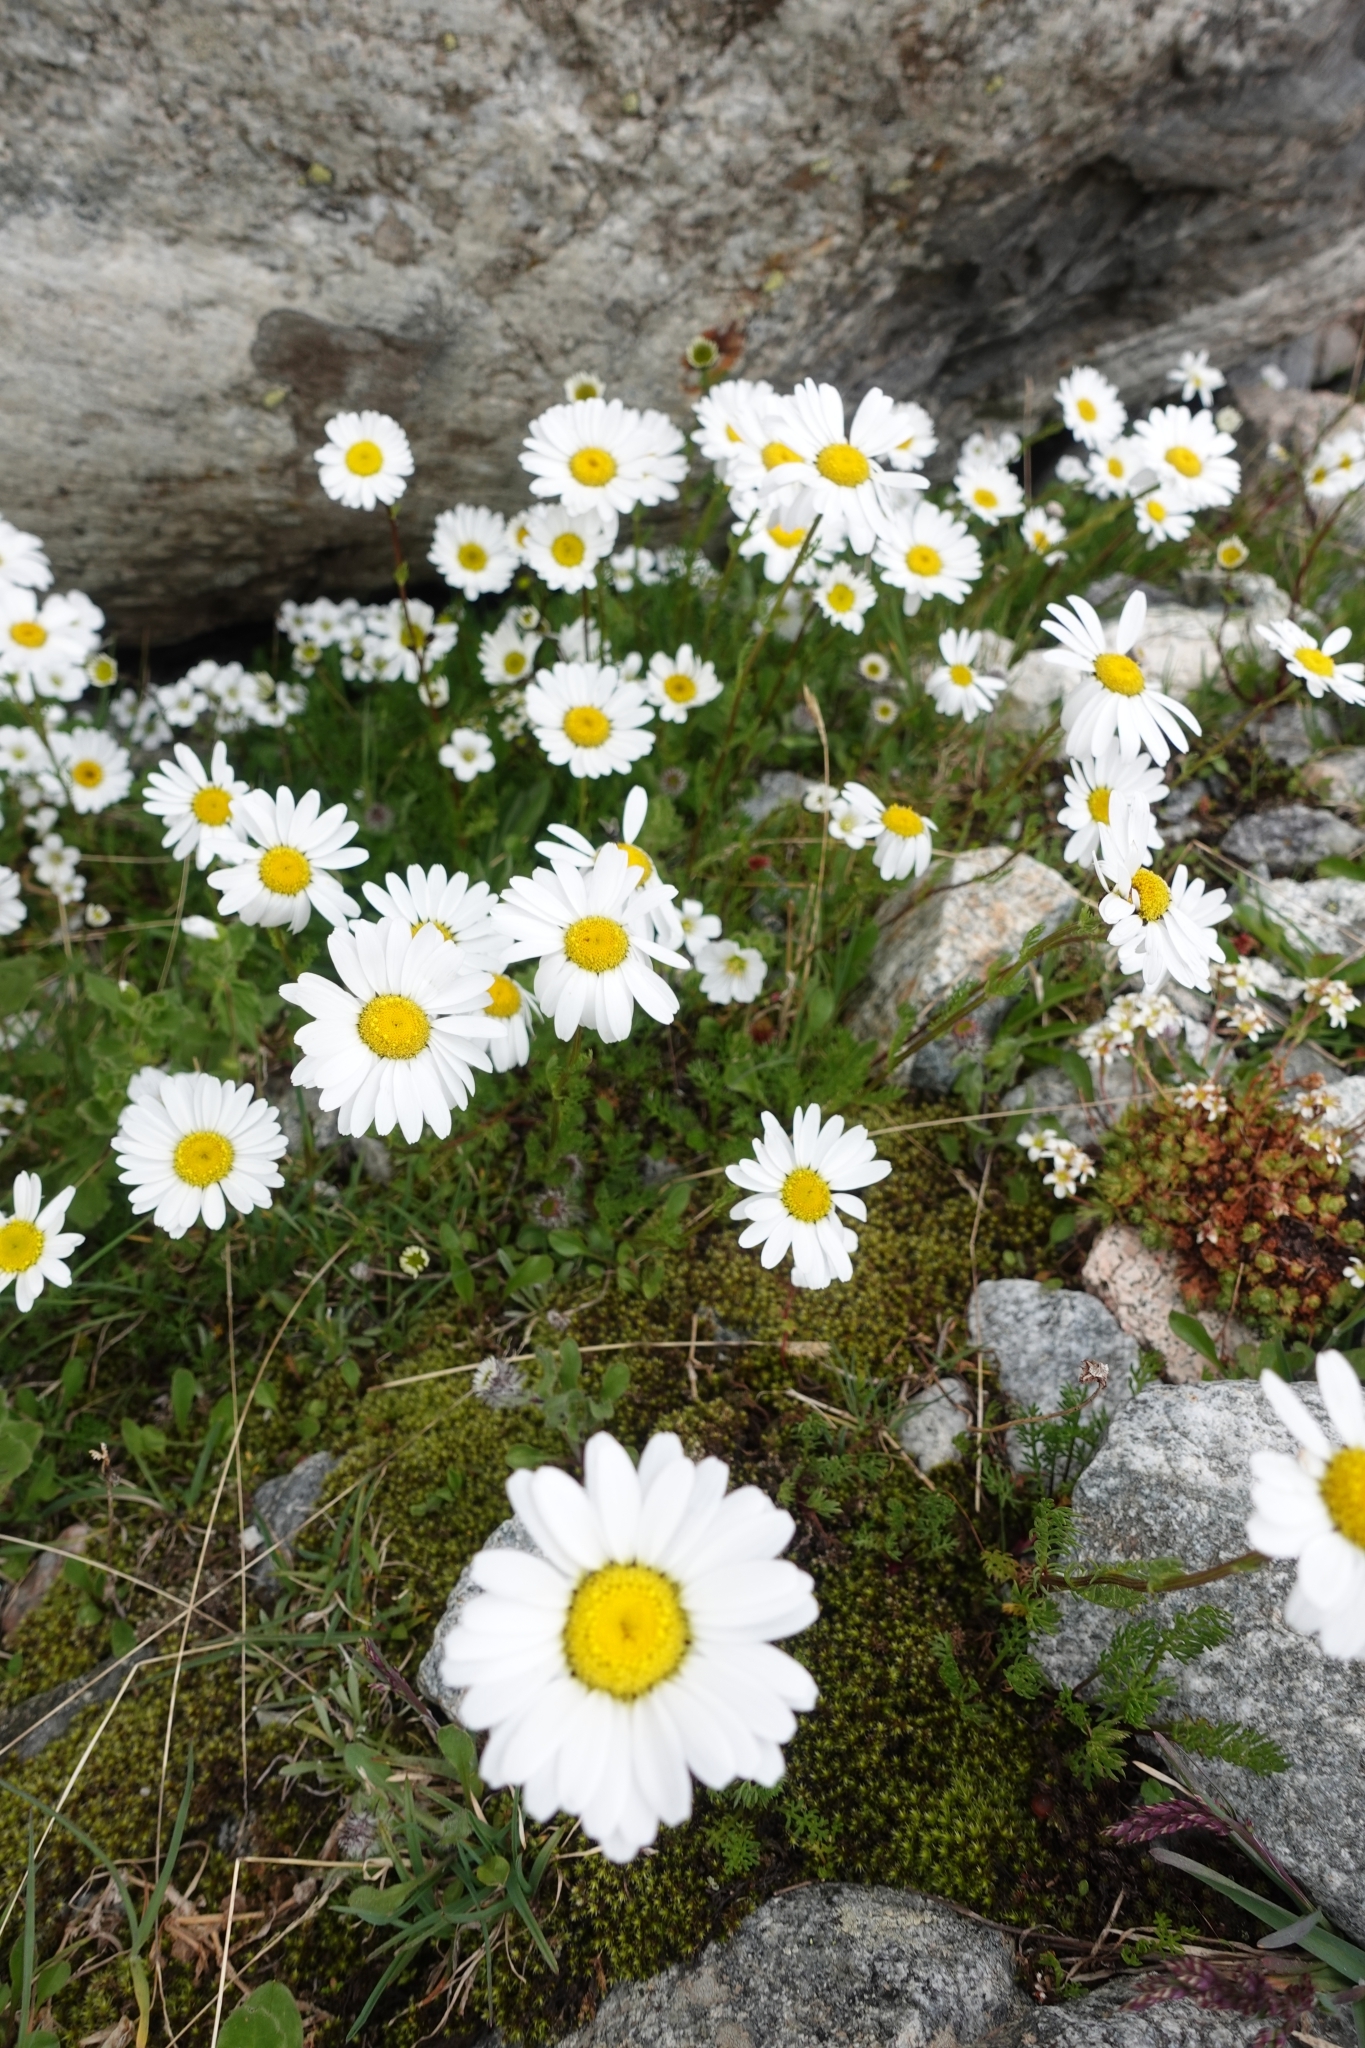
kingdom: Plantae
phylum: Tracheophyta
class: Magnoliopsida
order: Asterales
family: Asteraceae
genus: Tripleurospermum
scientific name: Tripleurospermum caucasicum
